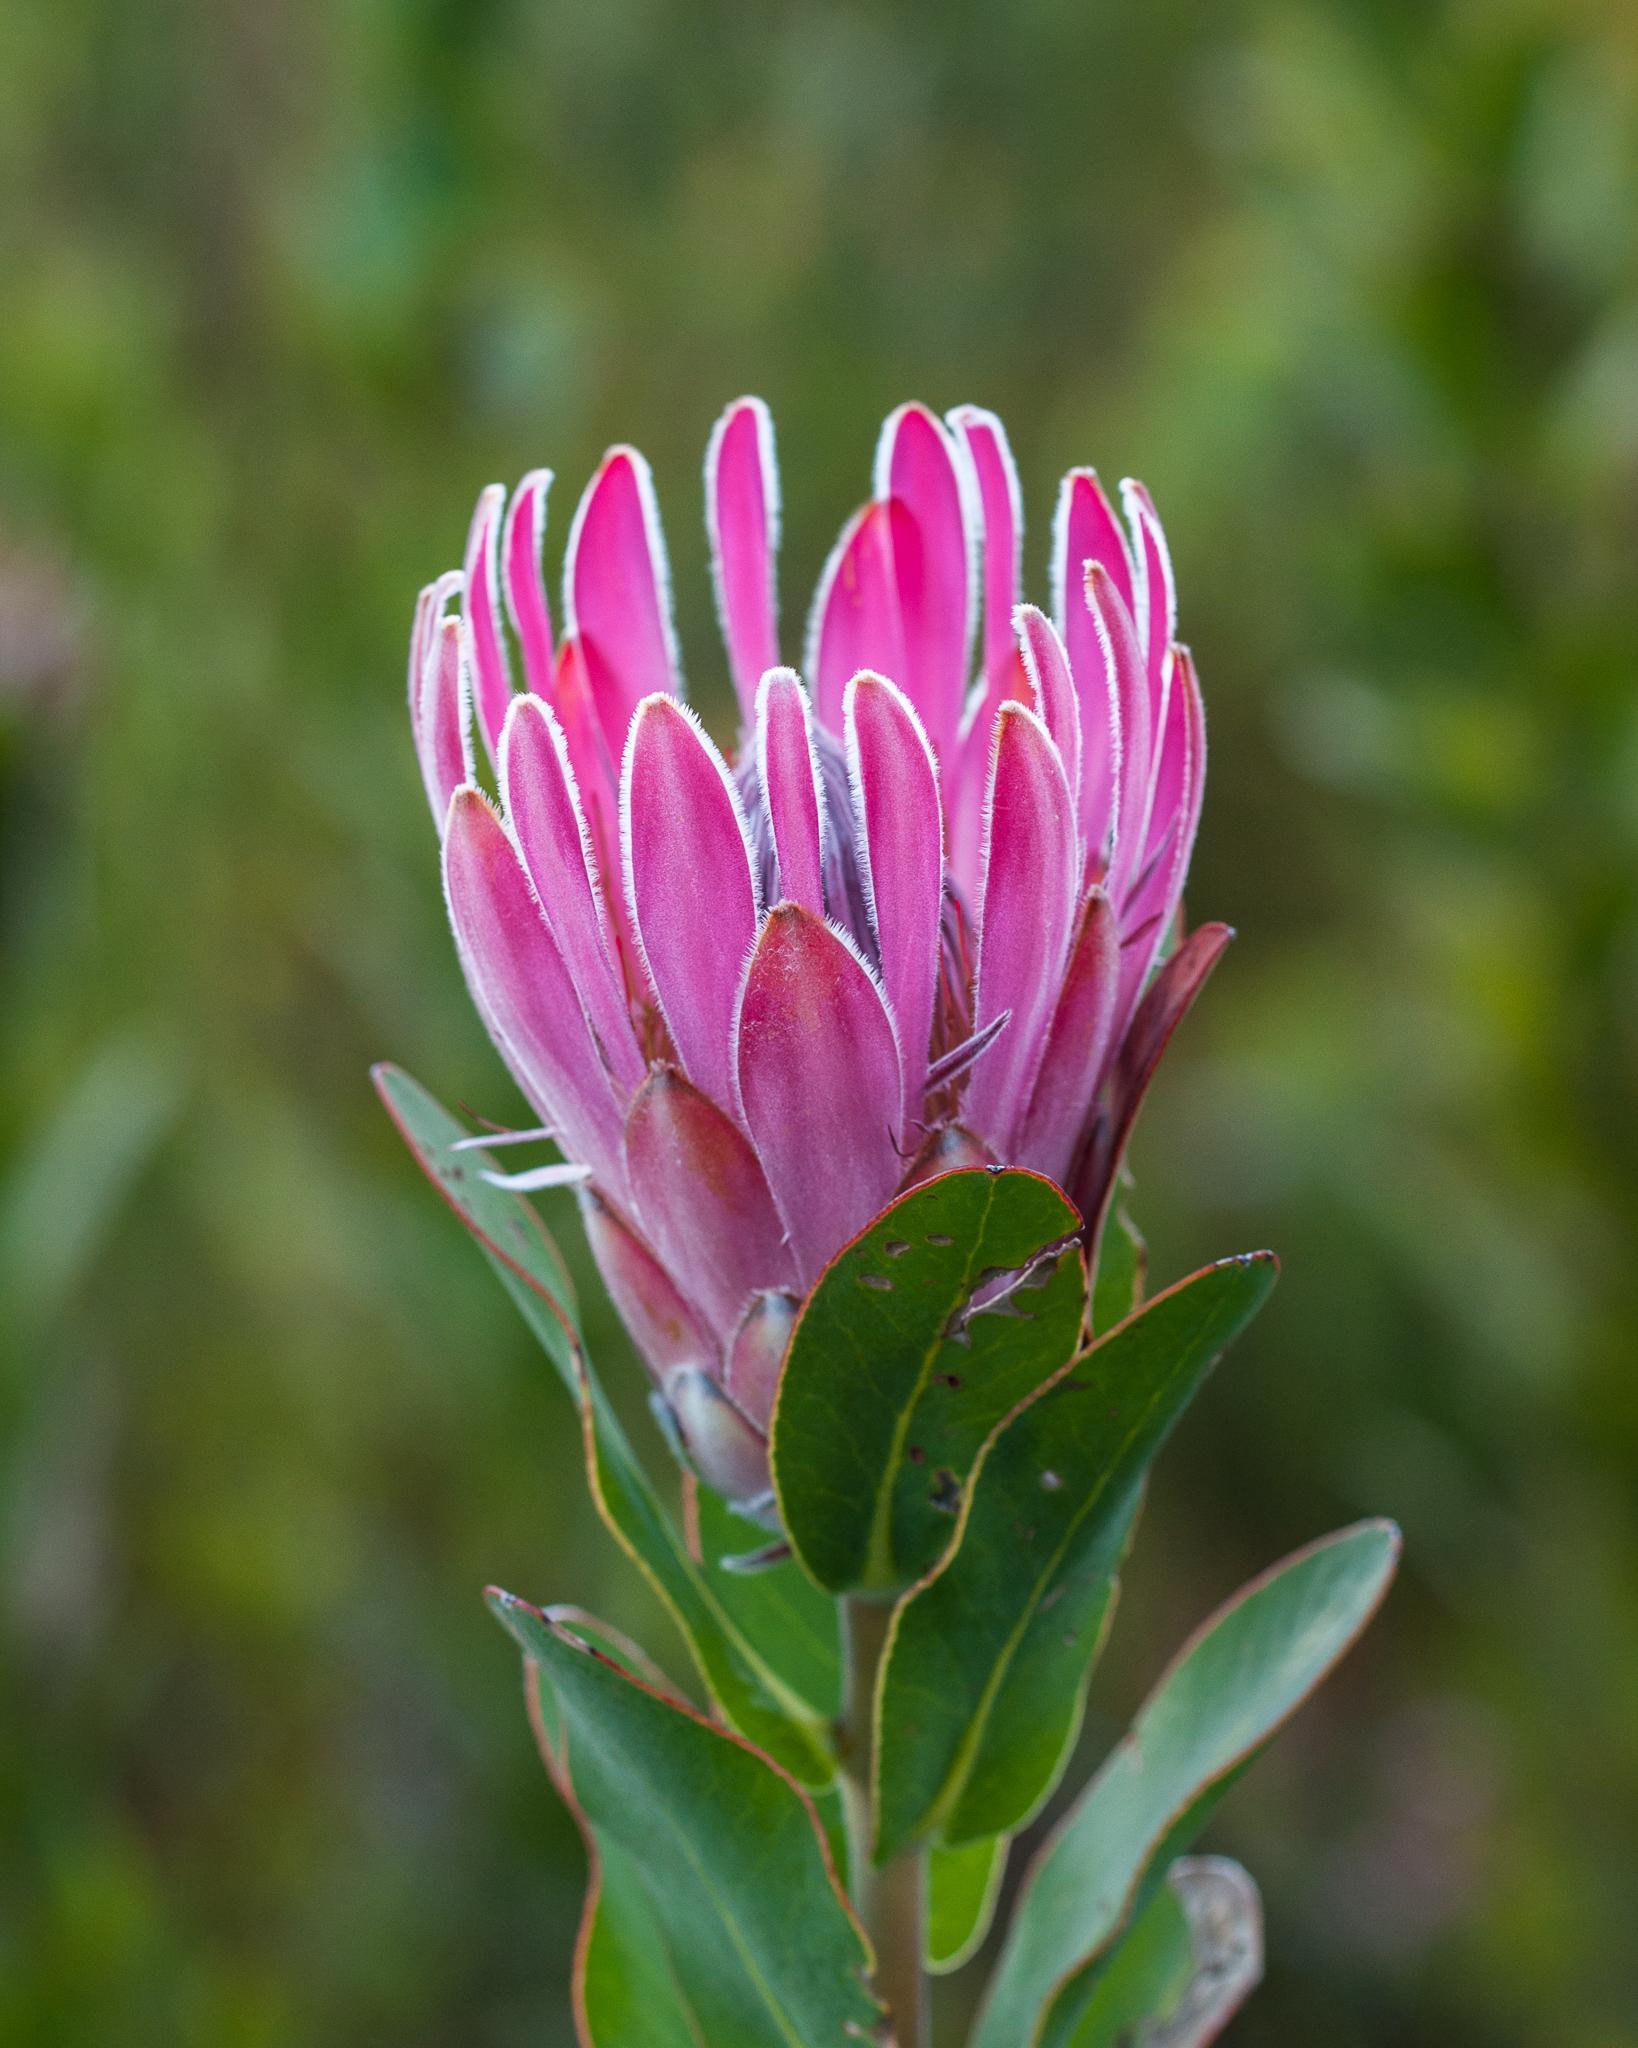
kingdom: Plantae
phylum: Tracheophyta
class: Magnoliopsida
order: Proteales
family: Proteaceae
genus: Protea
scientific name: Protea compacta
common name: Bot river protea
